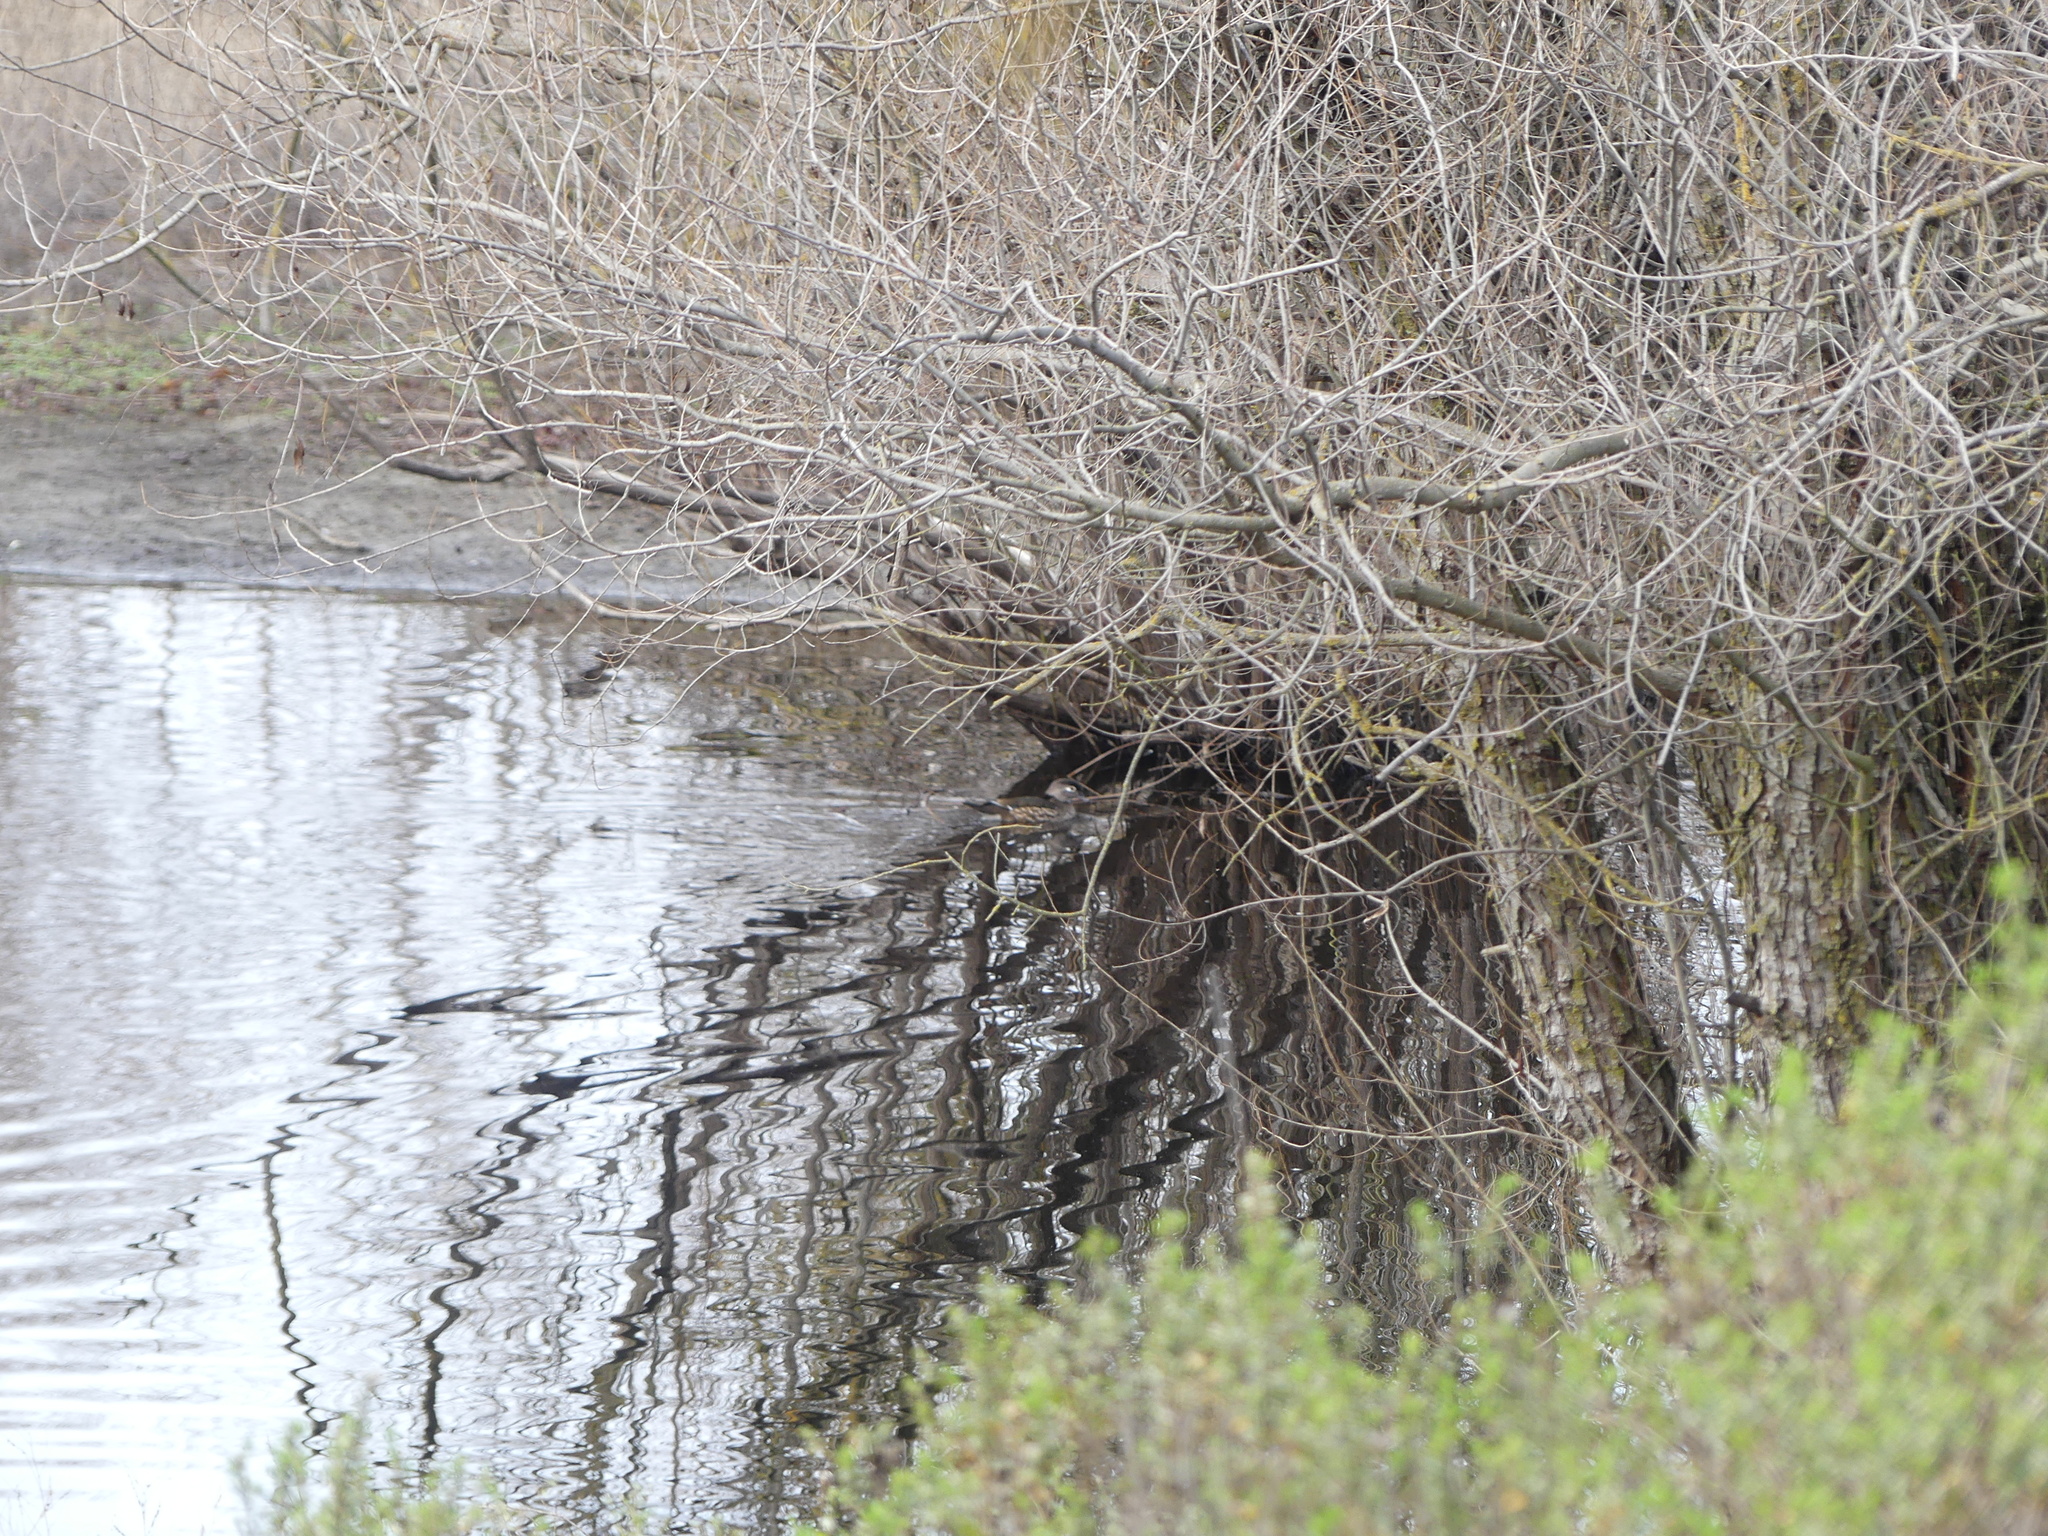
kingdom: Animalia
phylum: Chordata
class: Aves
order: Anseriformes
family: Anatidae
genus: Aix
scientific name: Aix sponsa
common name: Wood duck
